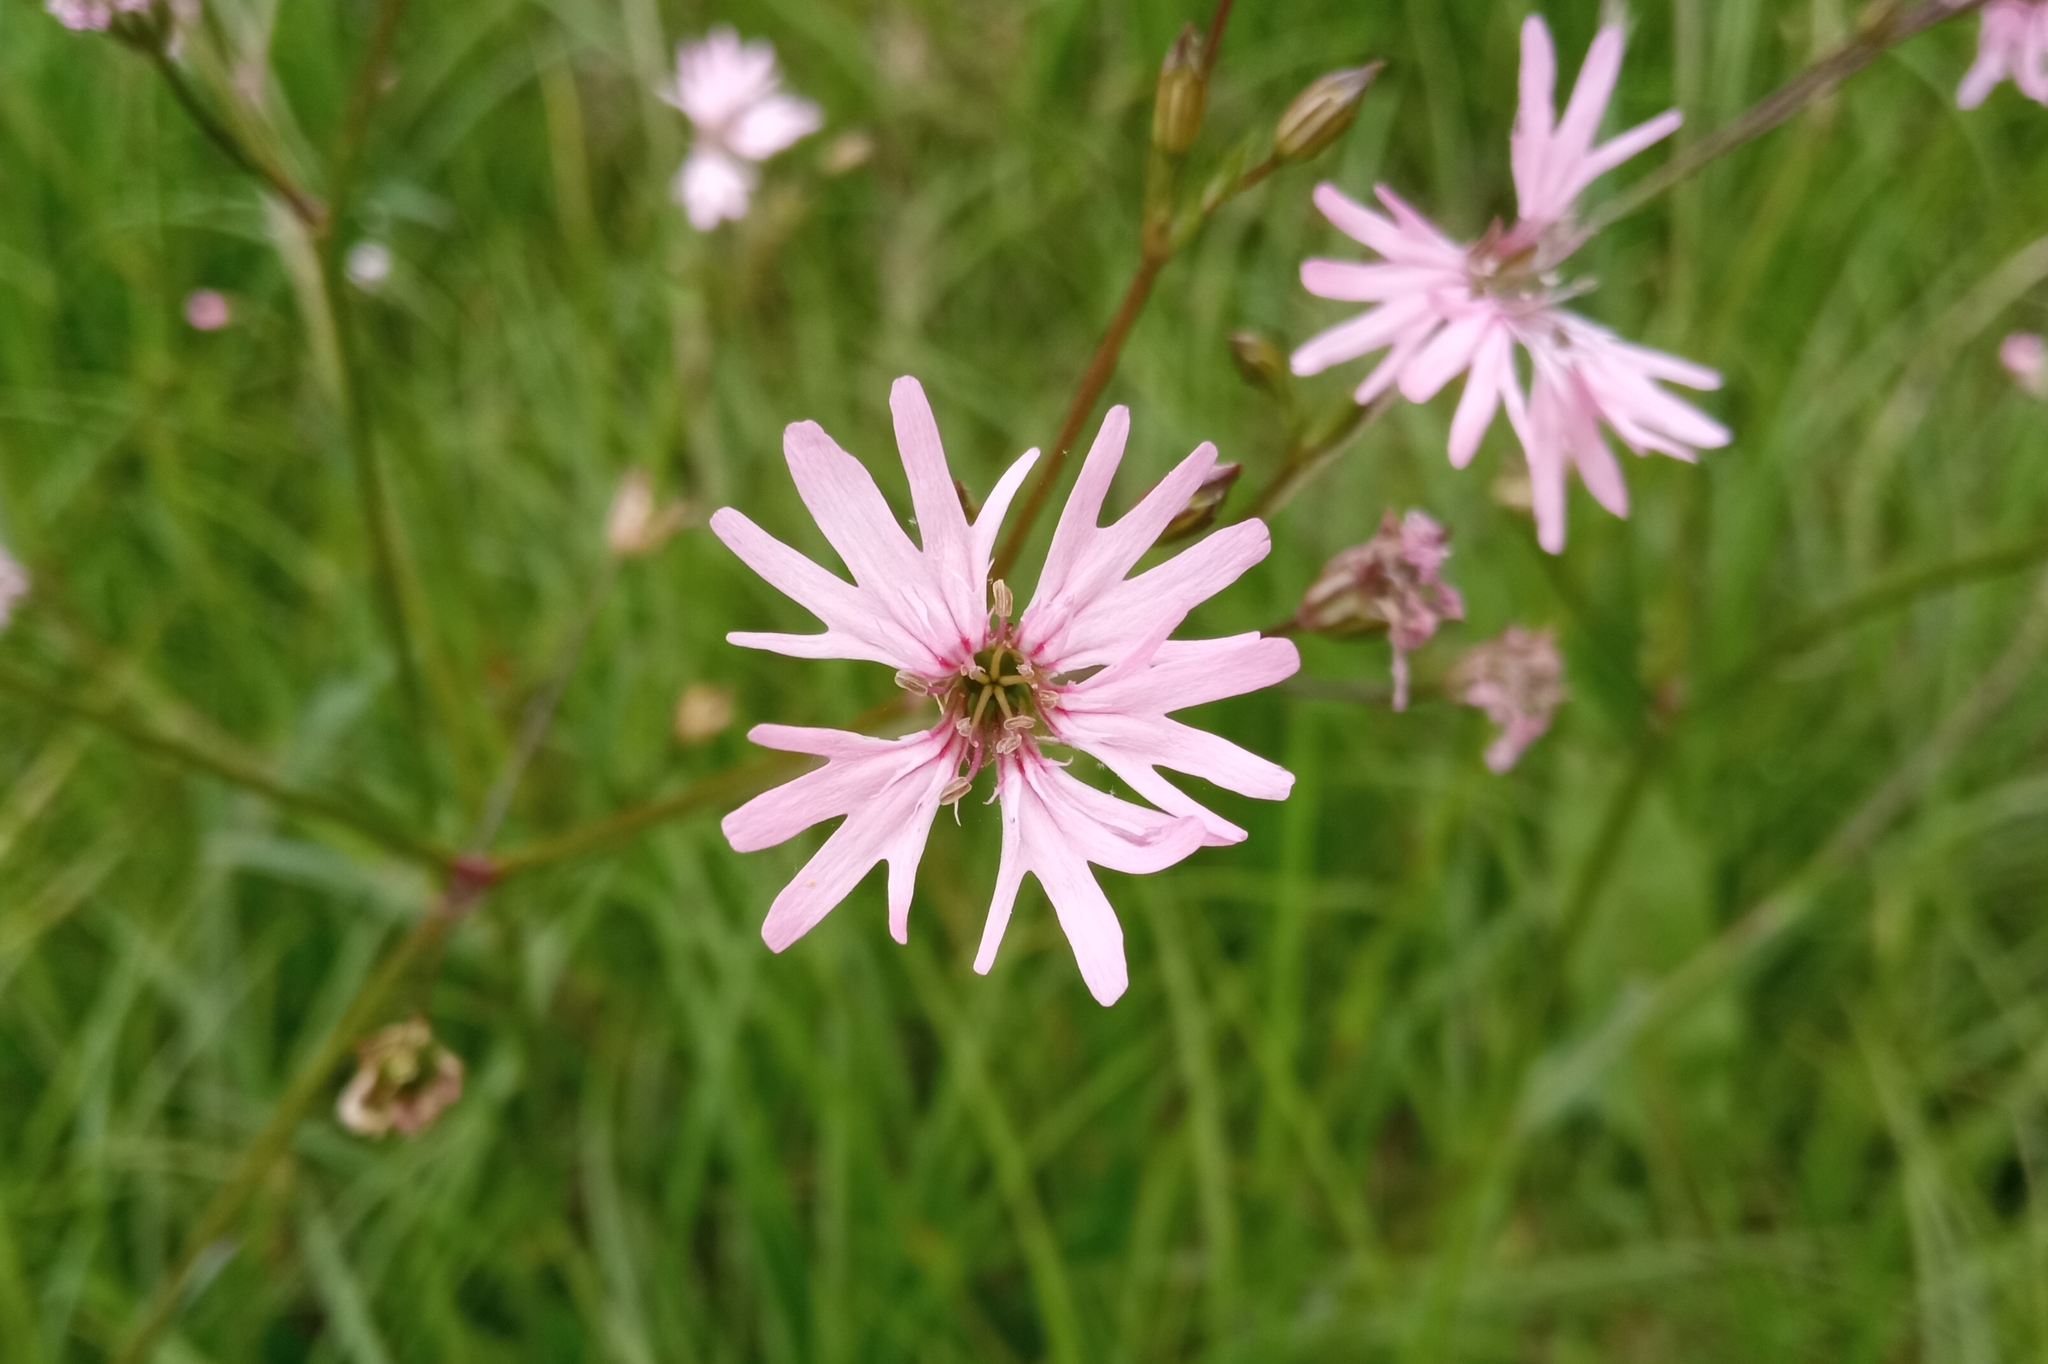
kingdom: Plantae
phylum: Tracheophyta
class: Magnoliopsida
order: Caryophyllales
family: Caryophyllaceae
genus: Silene
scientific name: Silene flos-cuculi
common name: Ragged-robin
